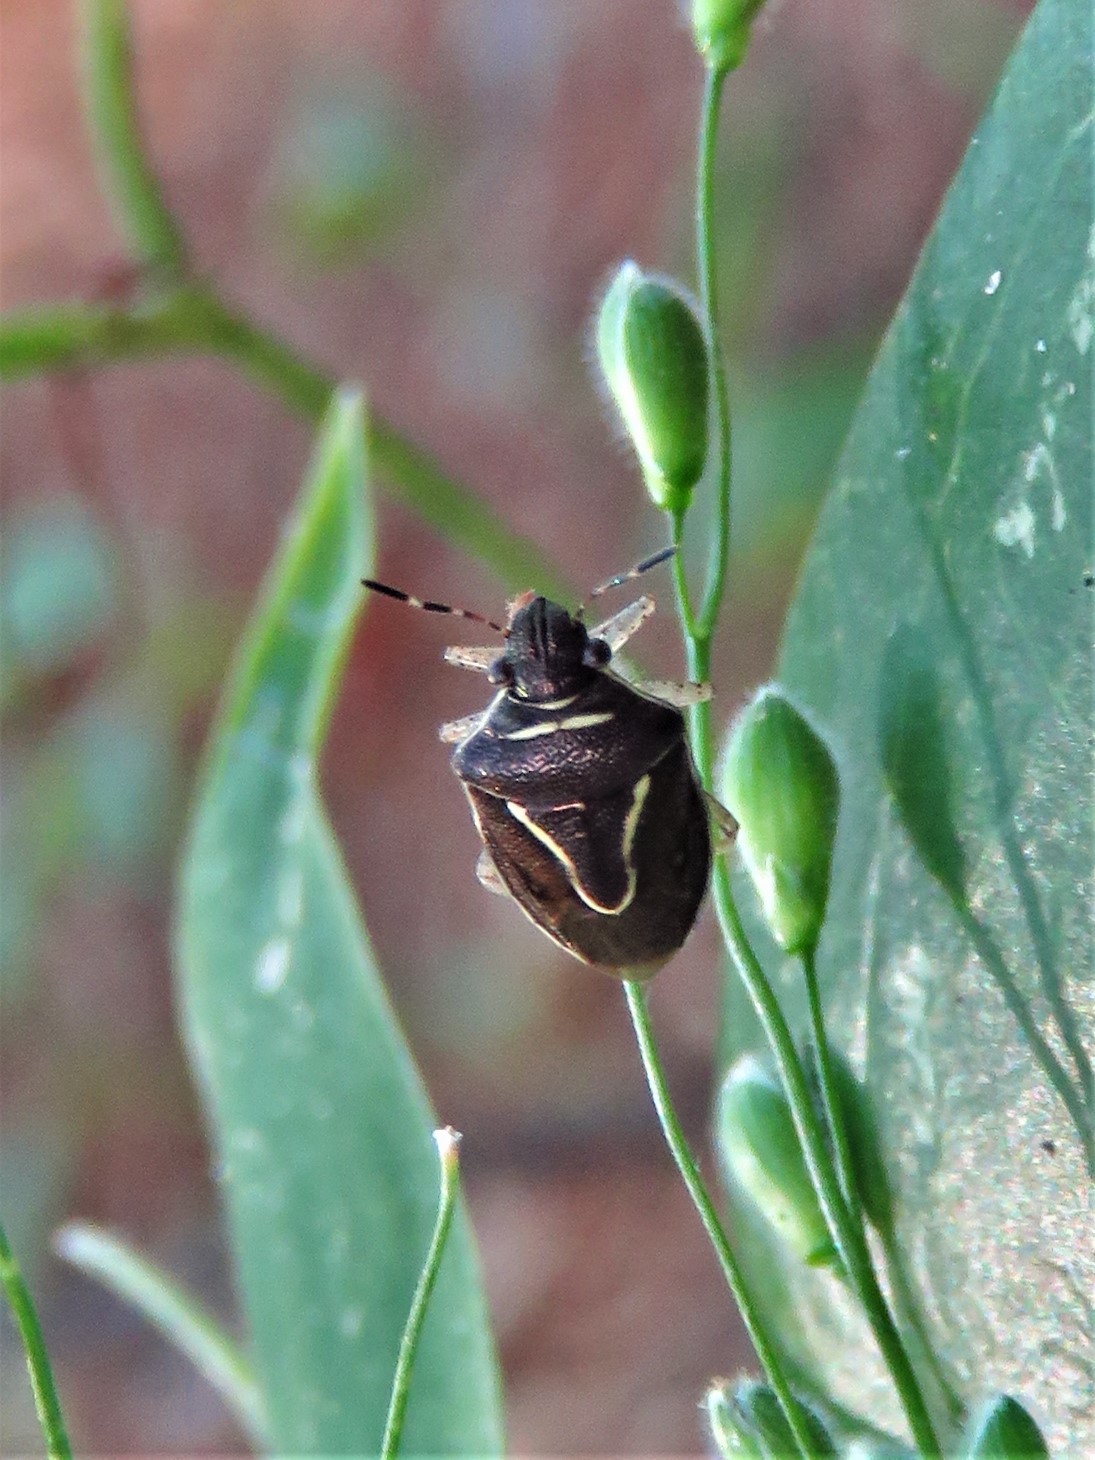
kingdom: Animalia
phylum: Arthropoda
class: Insecta
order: Hemiptera
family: Pentatomidae
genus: Mormidea
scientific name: Mormidea lugens
